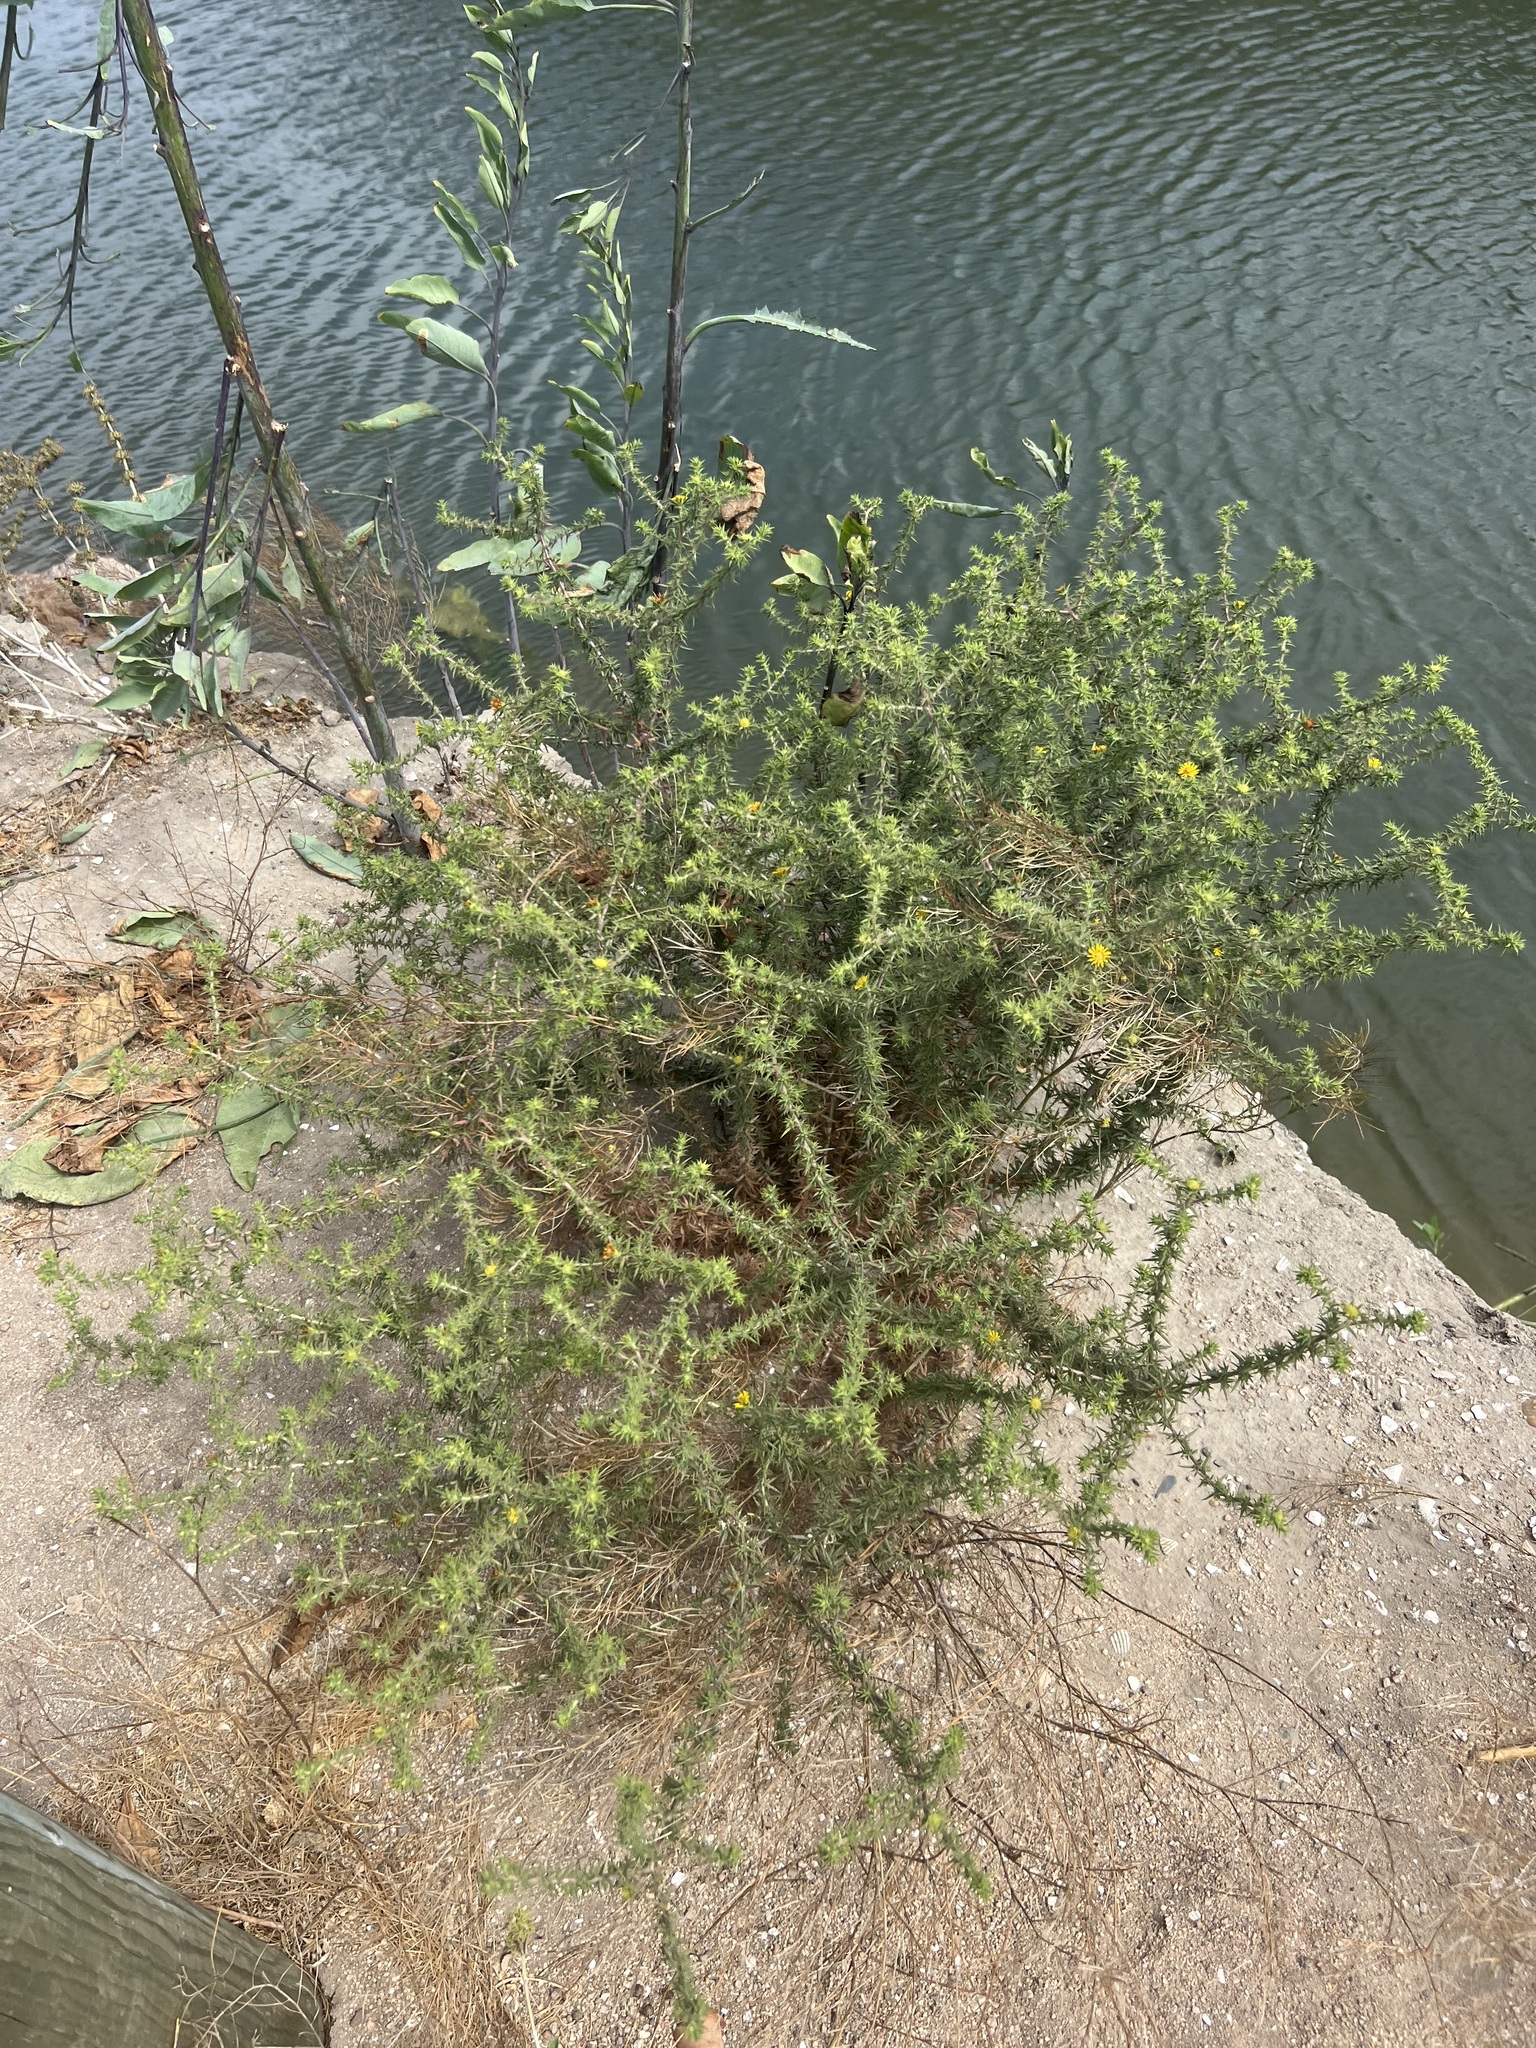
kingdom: Plantae
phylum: Tracheophyta
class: Magnoliopsida
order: Asterales
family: Asteraceae
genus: Centromadia
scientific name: Centromadia parryi
